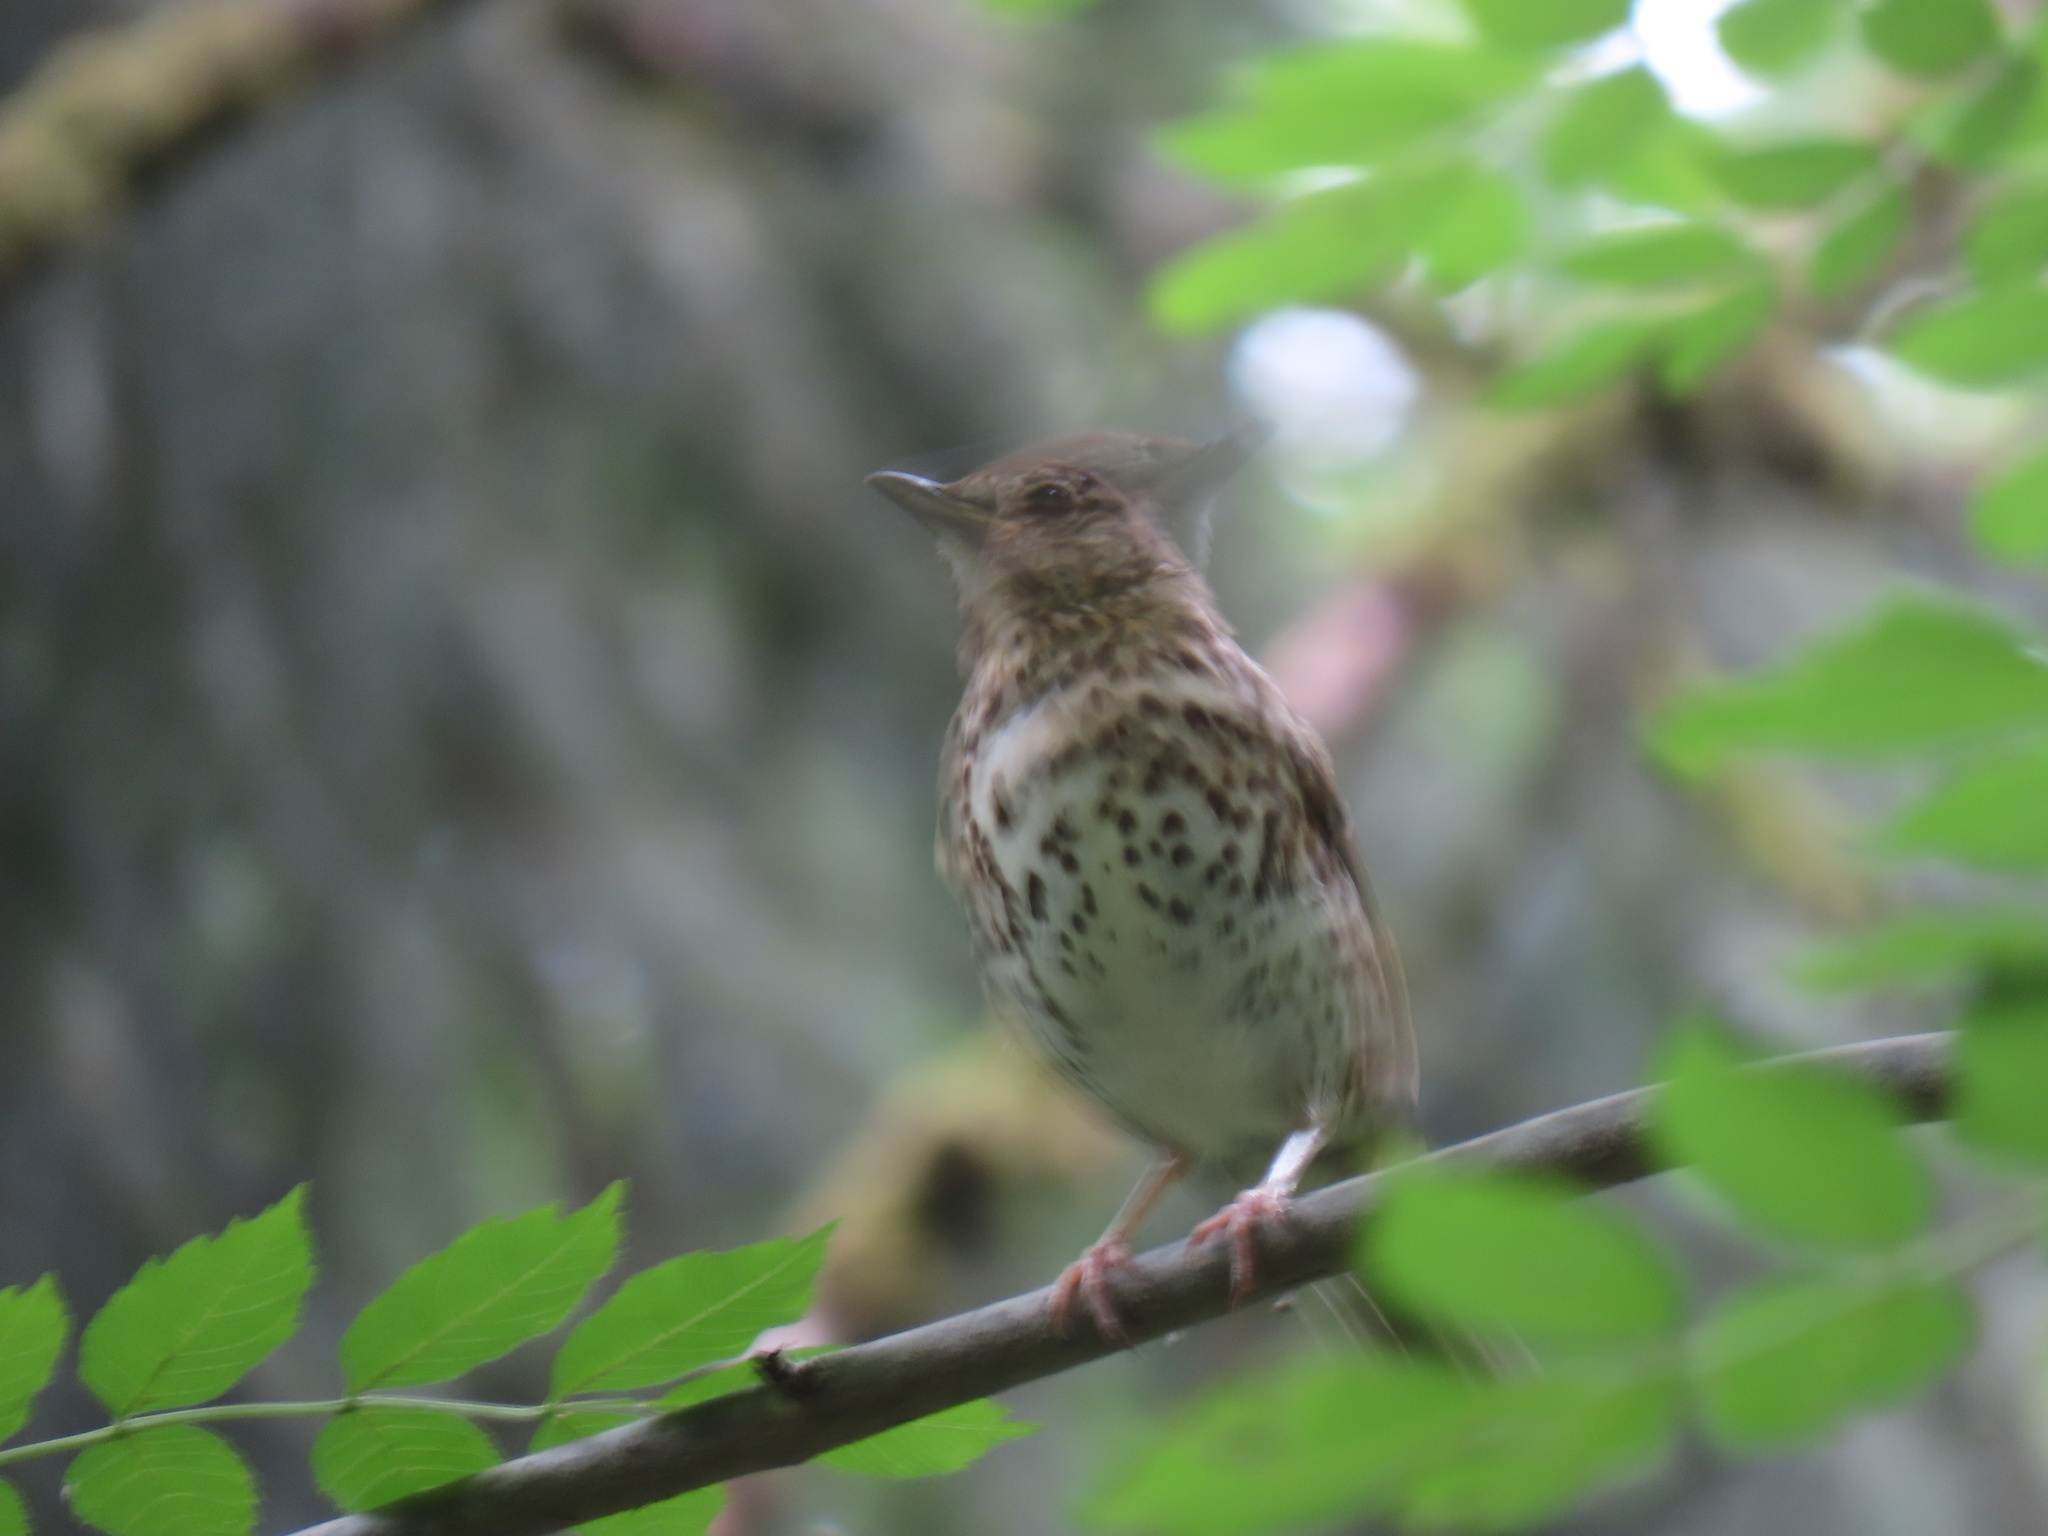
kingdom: Animalia
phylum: Chordata
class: Aves
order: Passeriformes
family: Turdidae
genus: Turdus
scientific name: Turdus philomelos
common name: Song thrush
